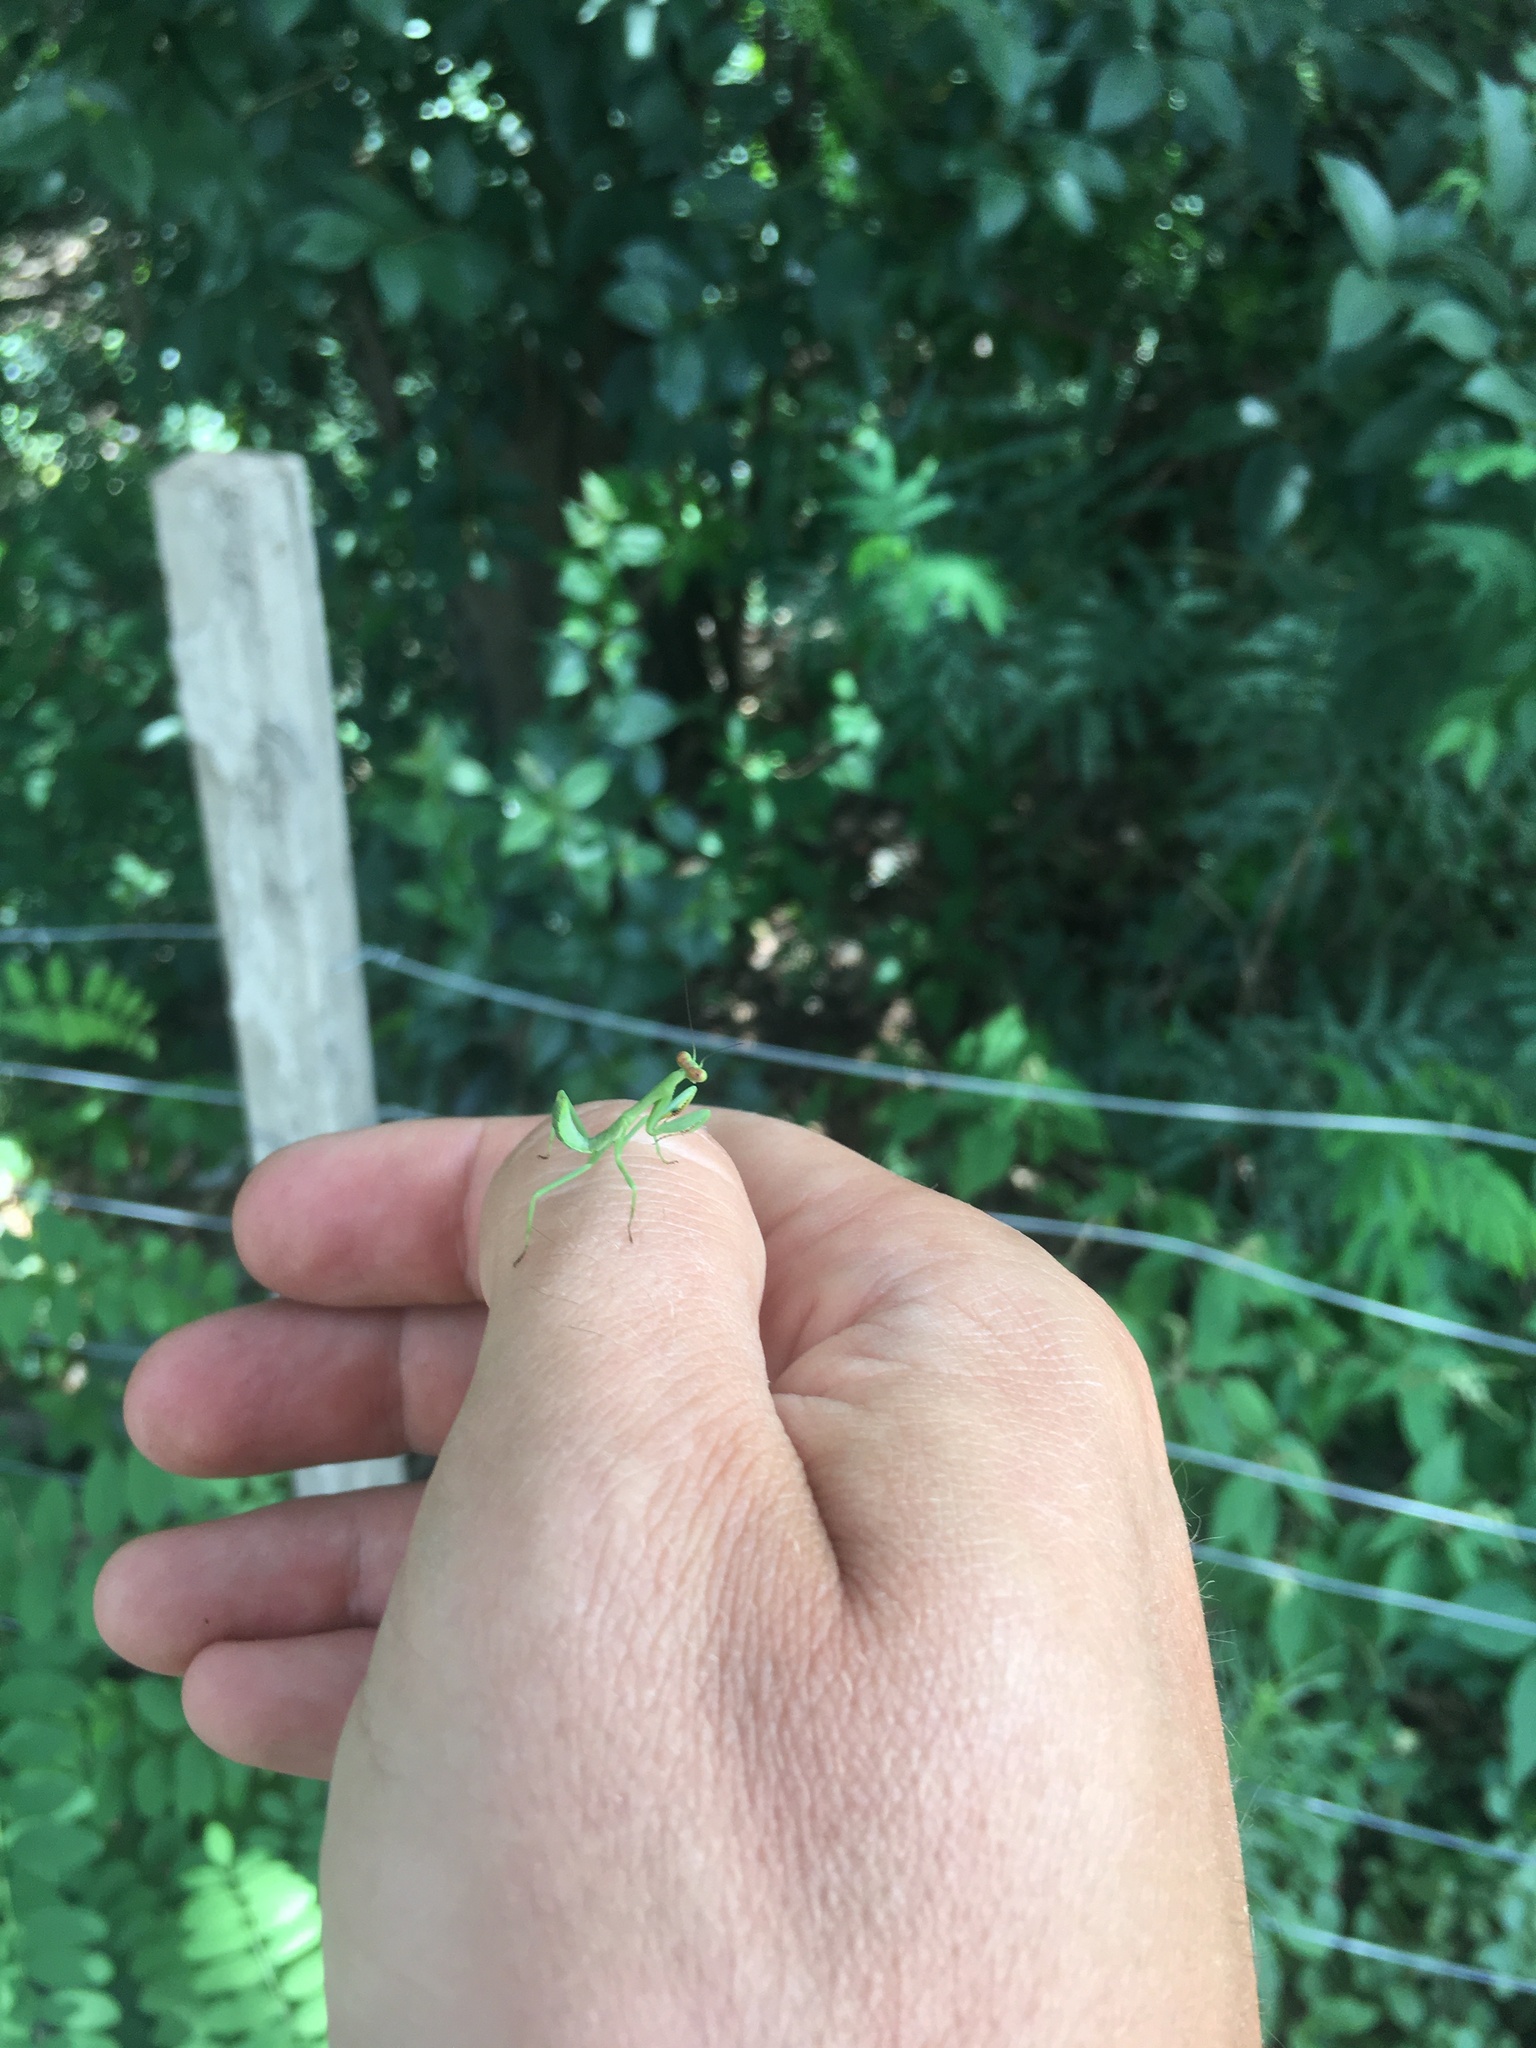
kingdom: Animalia
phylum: Arthropoda
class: Insecta
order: Mantodea
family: Mantidae
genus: Stagmatoptera
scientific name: Stagmatoptera hyaloptera
